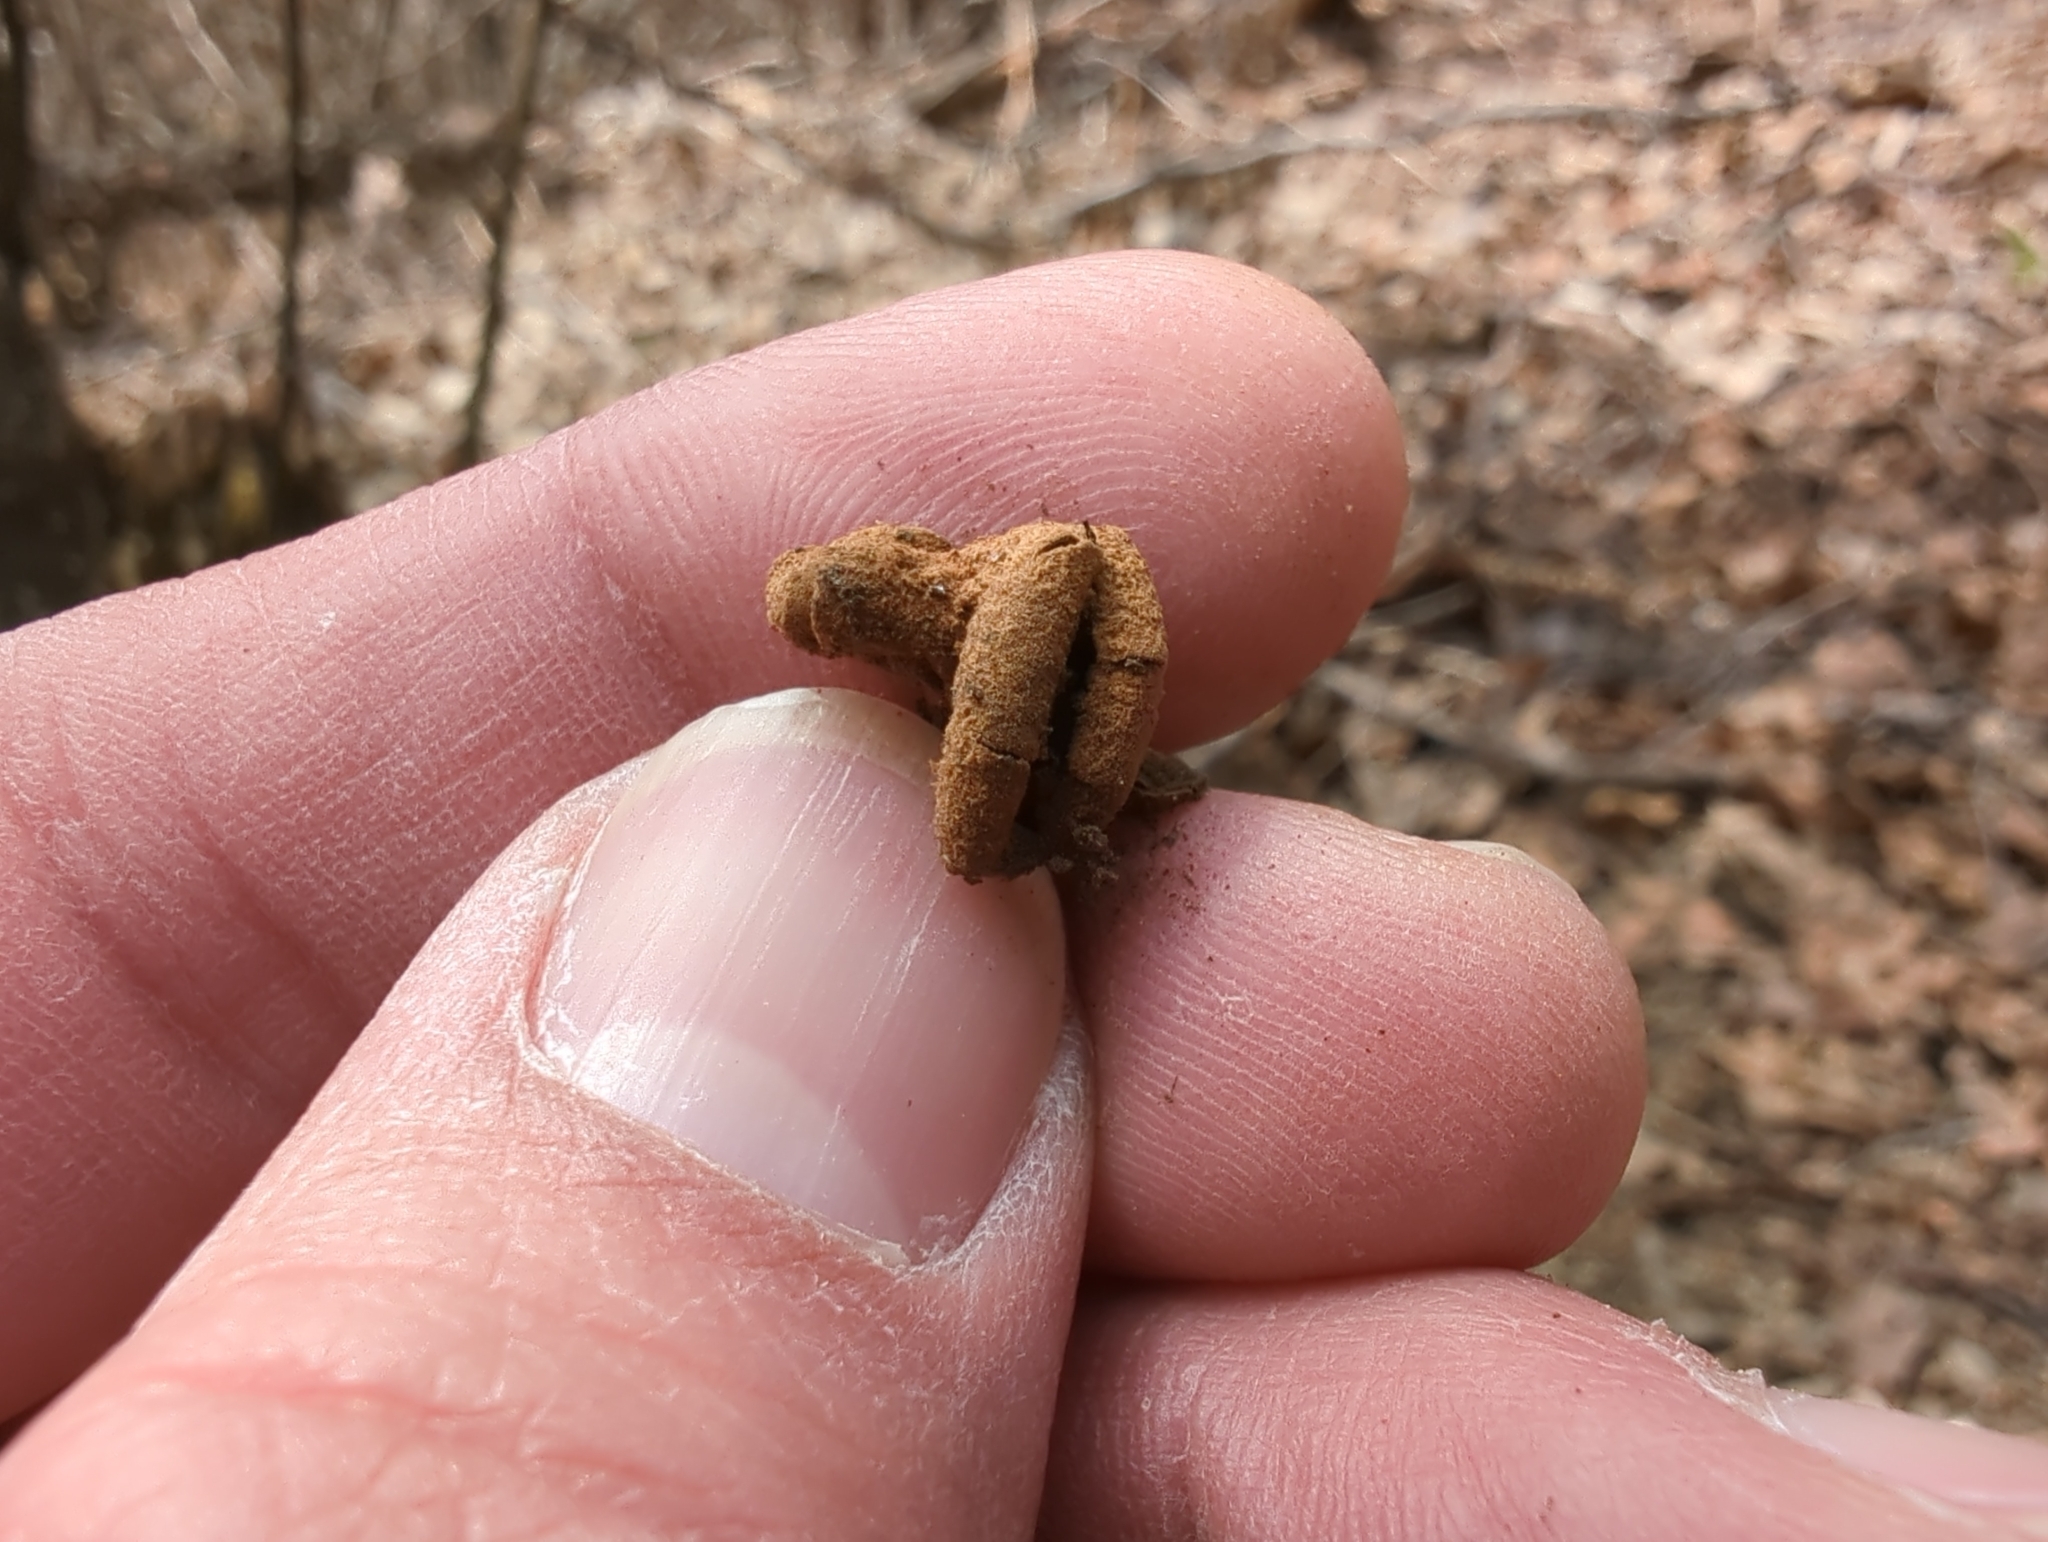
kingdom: Fungi
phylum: Ascomycota
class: Leotiomycetes
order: Helotiales
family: Cenangiaceae
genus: Encoelia
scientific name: Encoelia furfuracea
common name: Spring hazelcup
